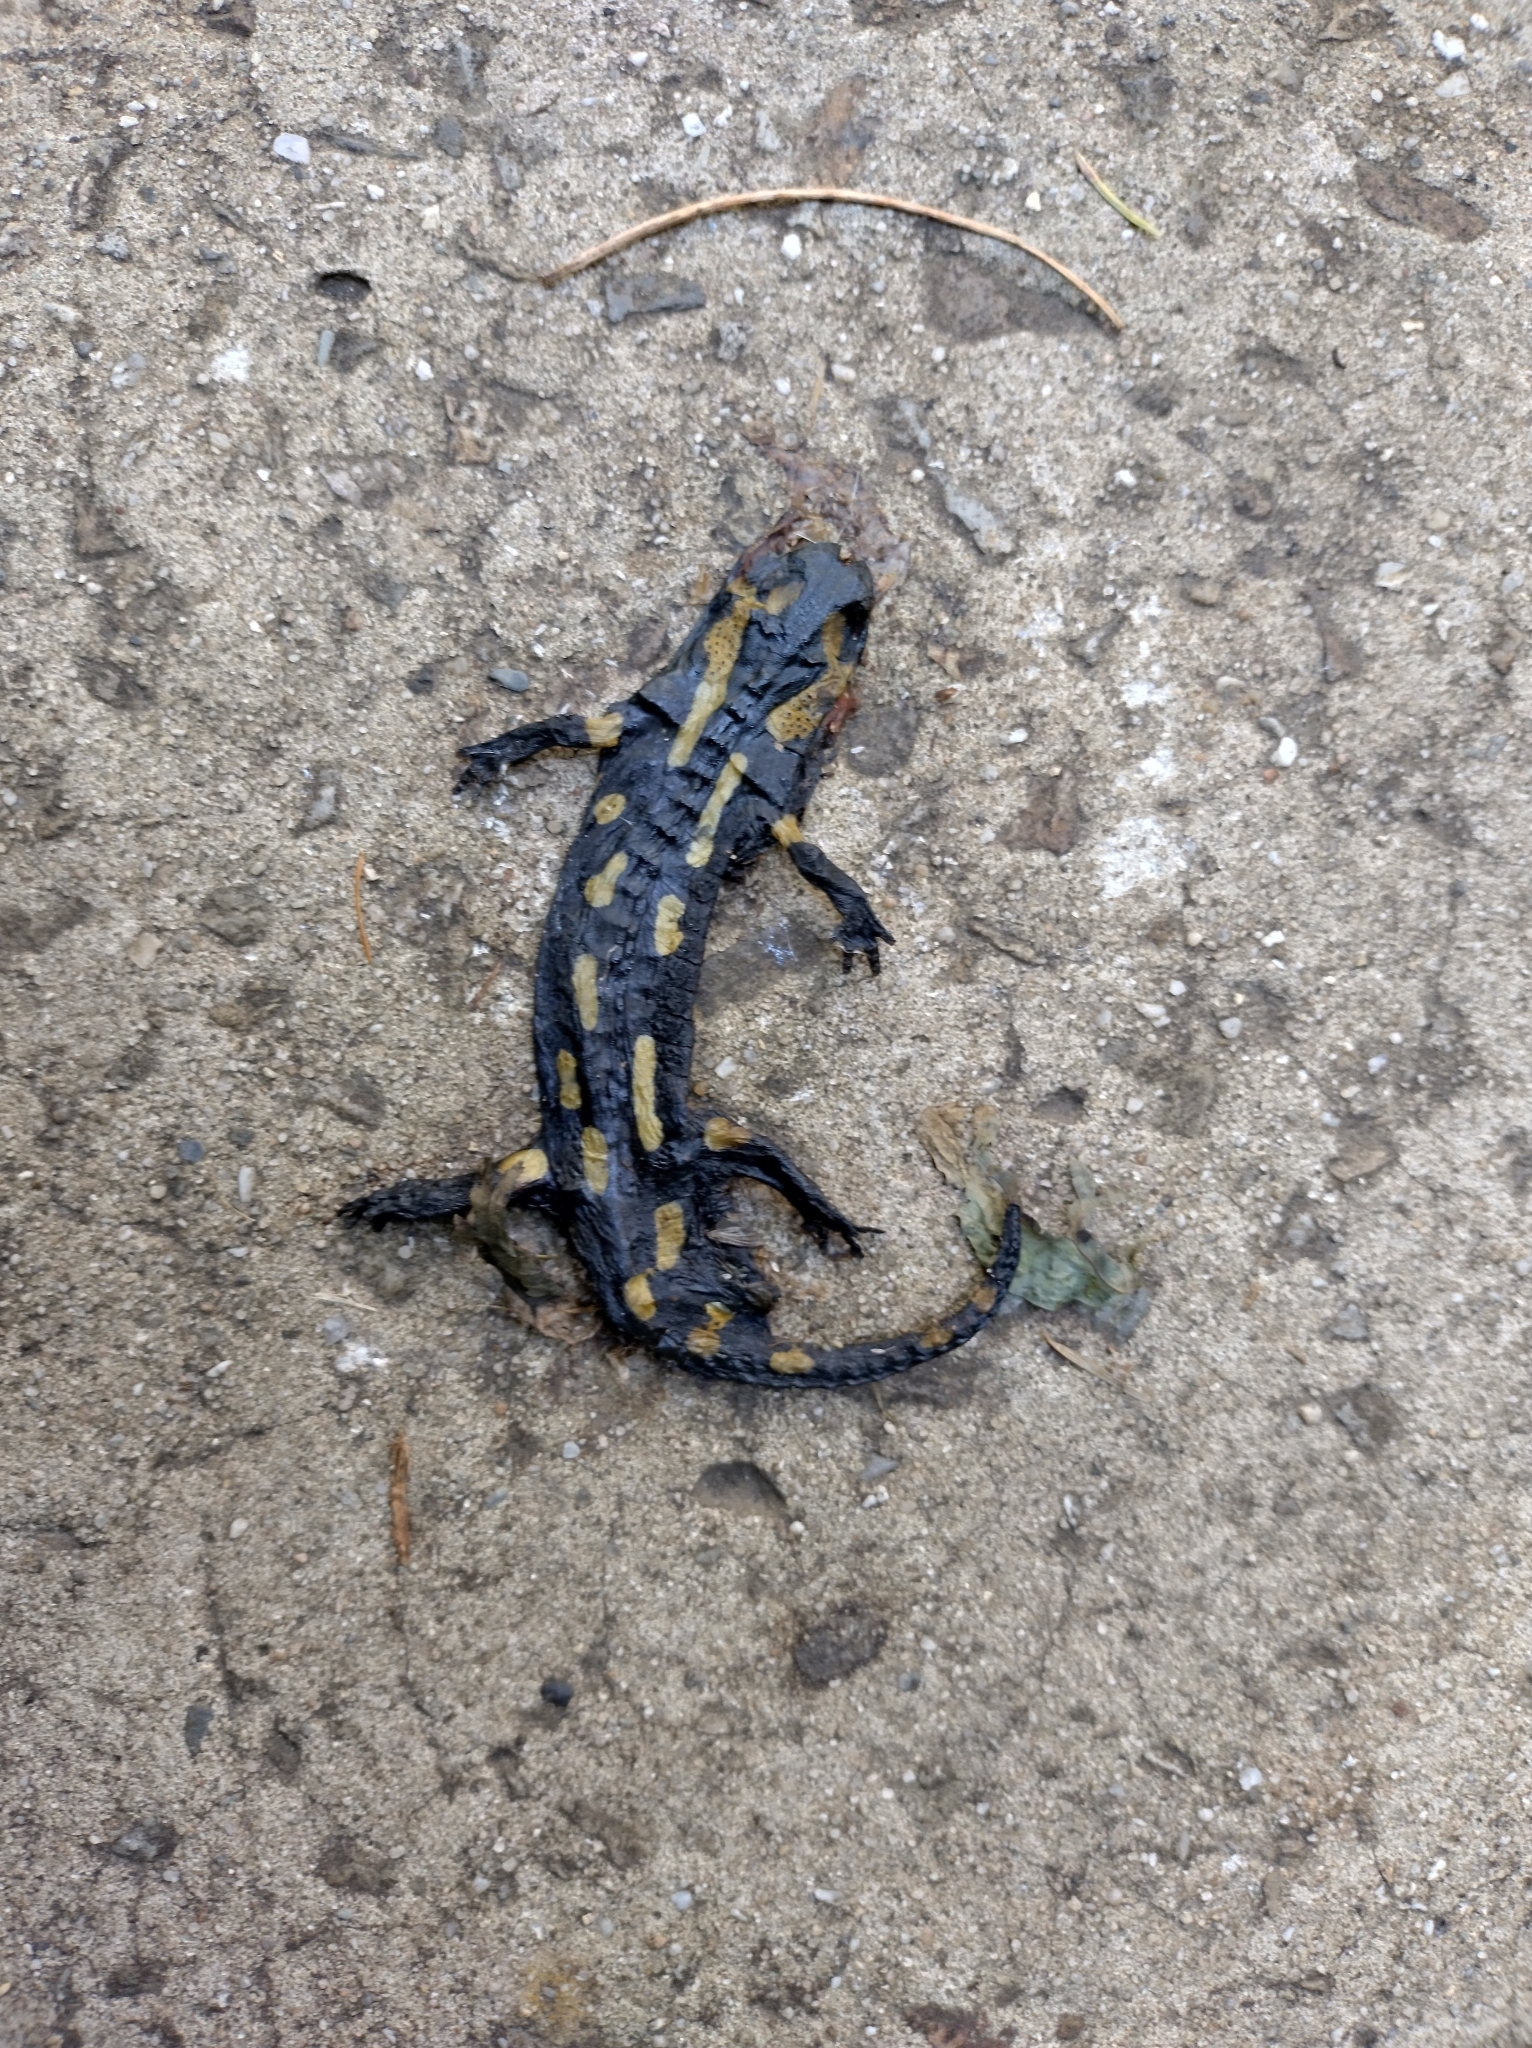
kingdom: Animalia
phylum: Chordata
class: Amphibia
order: Caudata
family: Salamandridae
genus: Salamandra
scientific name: Salamandra salamandra
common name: Fire salamander
